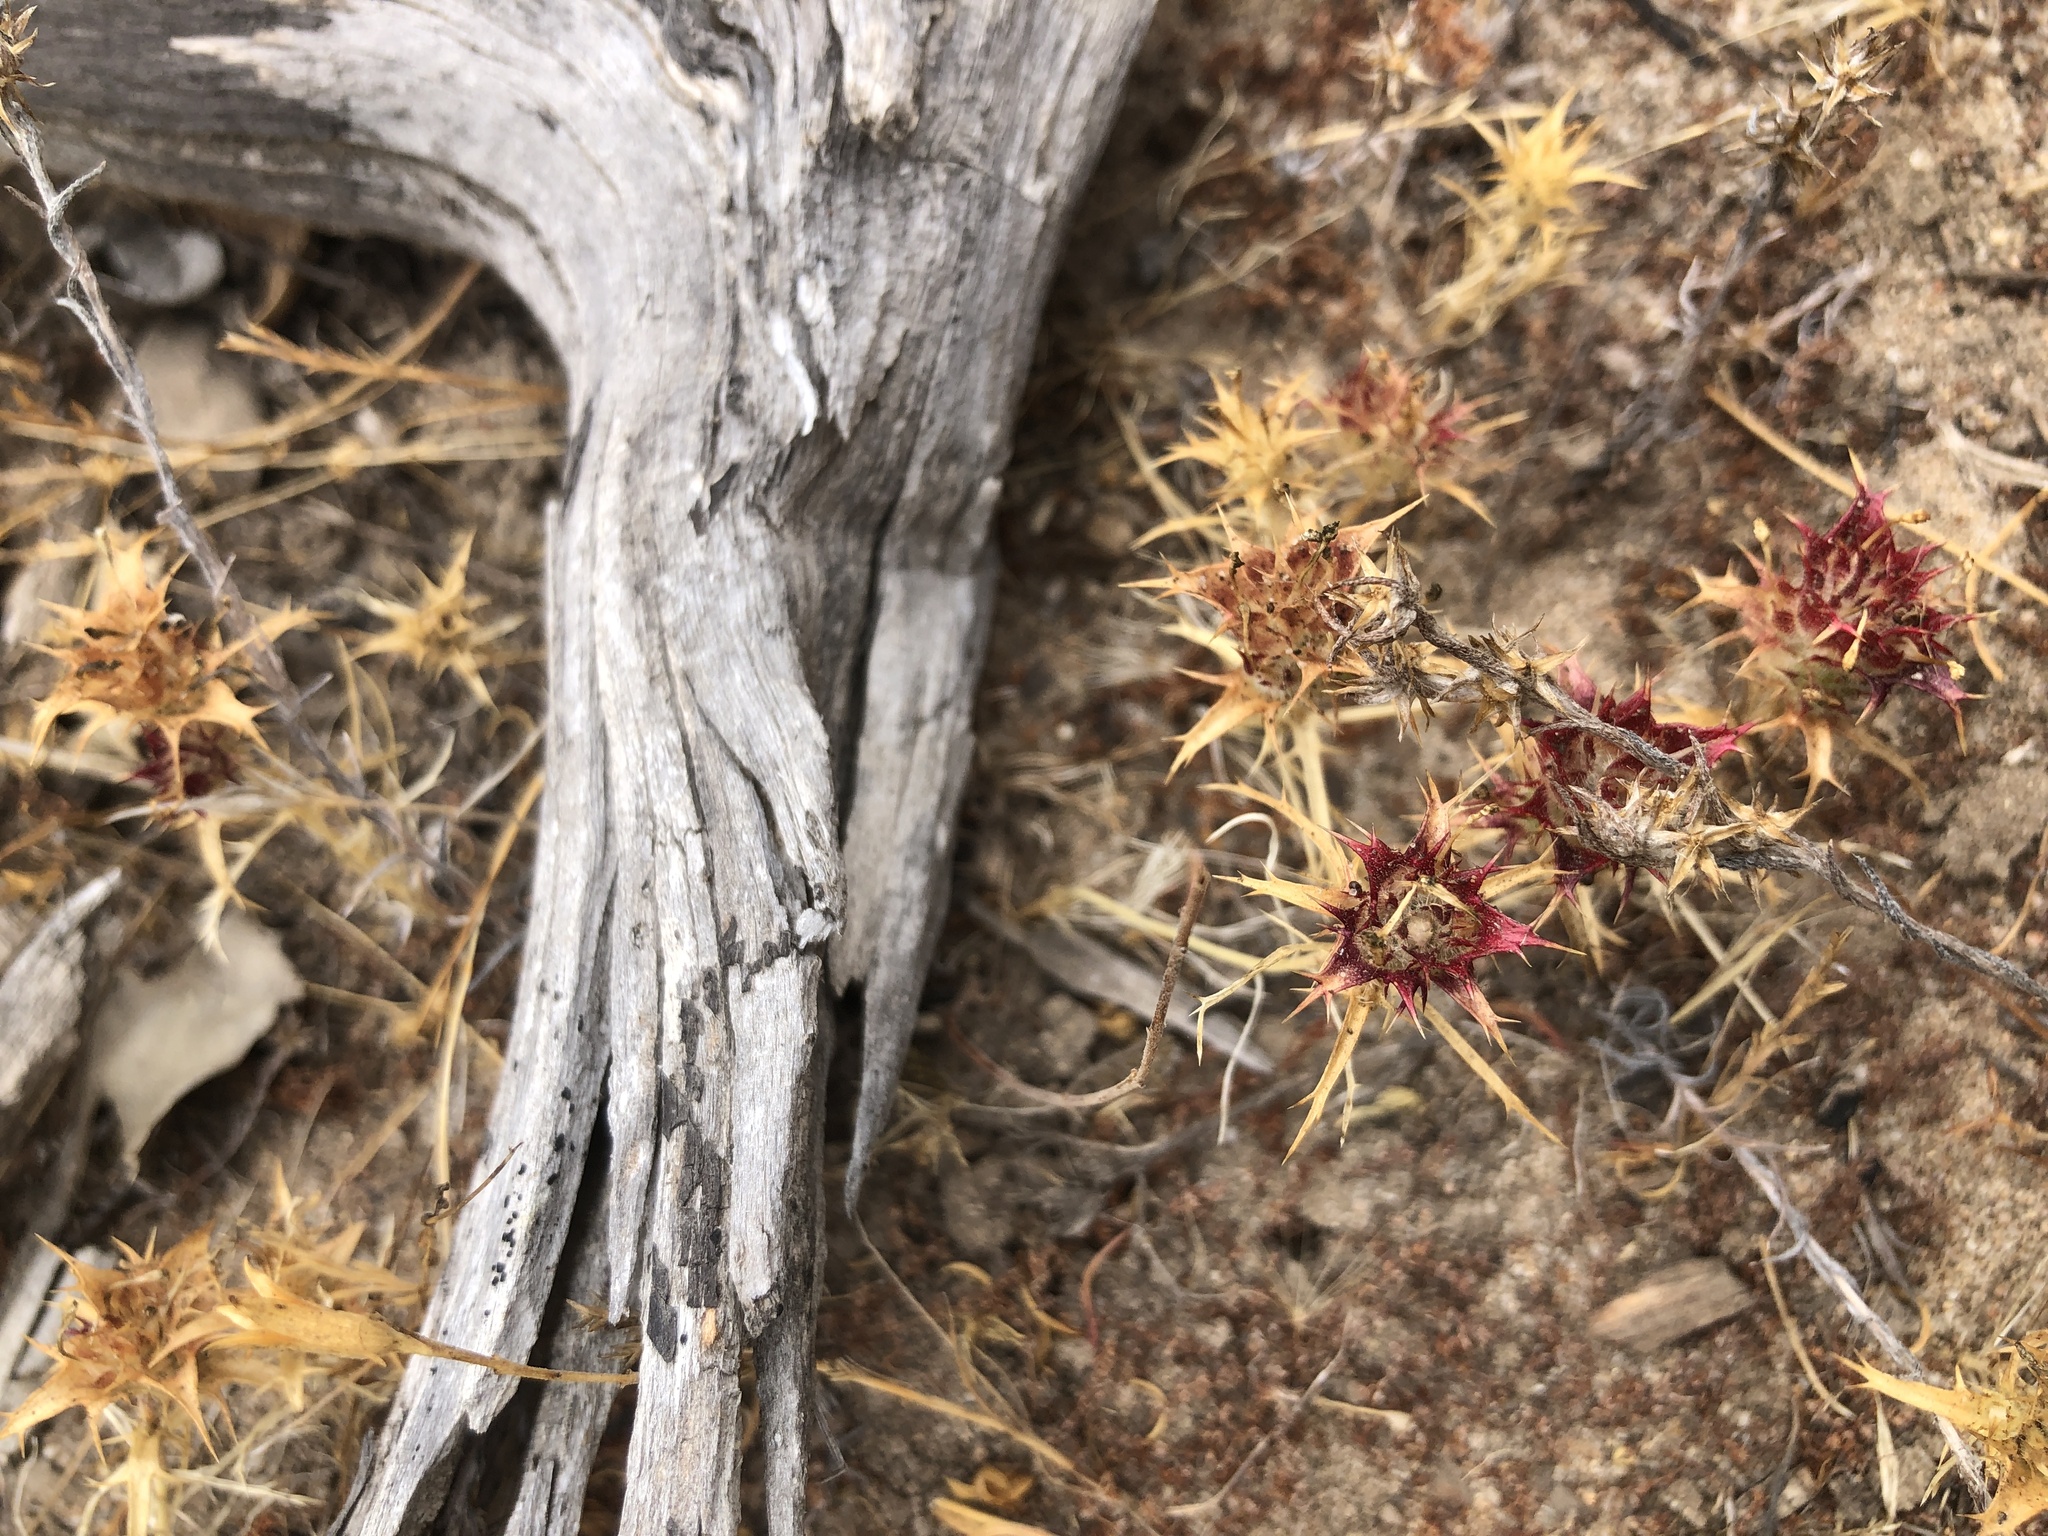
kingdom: Plantae
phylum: Tracheophyta
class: Magnoliopsida
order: Ericales
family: Polemoniaceae
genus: Navarretia
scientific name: Navarretia atractyloides
